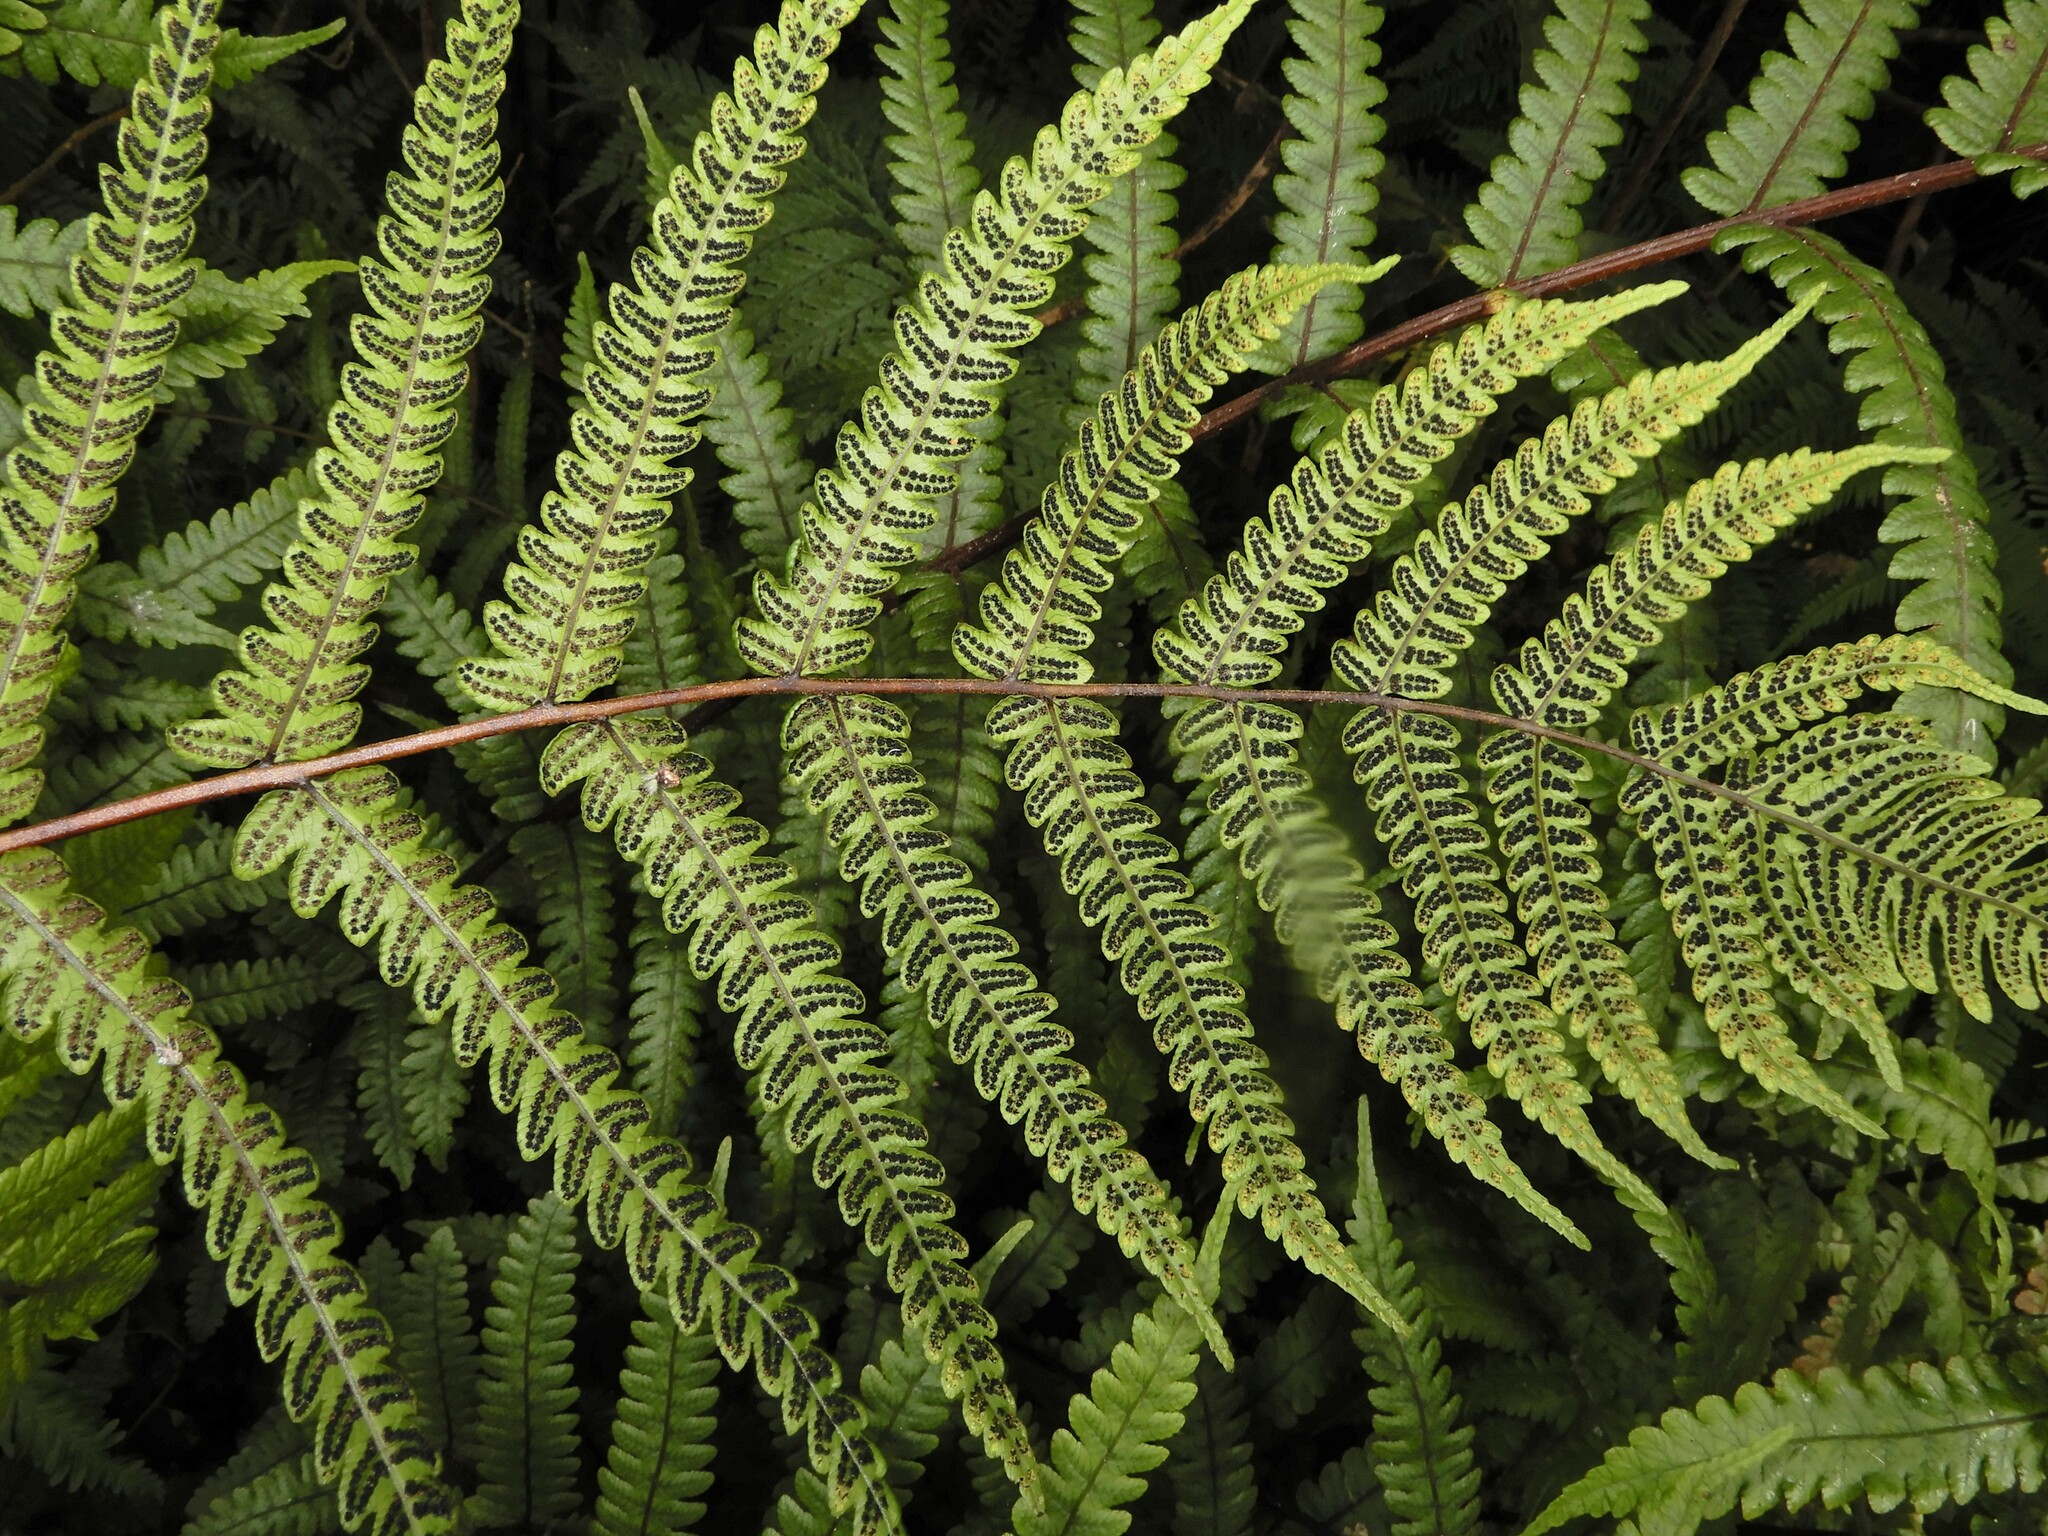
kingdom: Plantae
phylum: Tracheophyta
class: Polypodiopsida
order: Polypodiales
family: Thelypteridaceae
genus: Pakau
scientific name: Pakau pennigera
